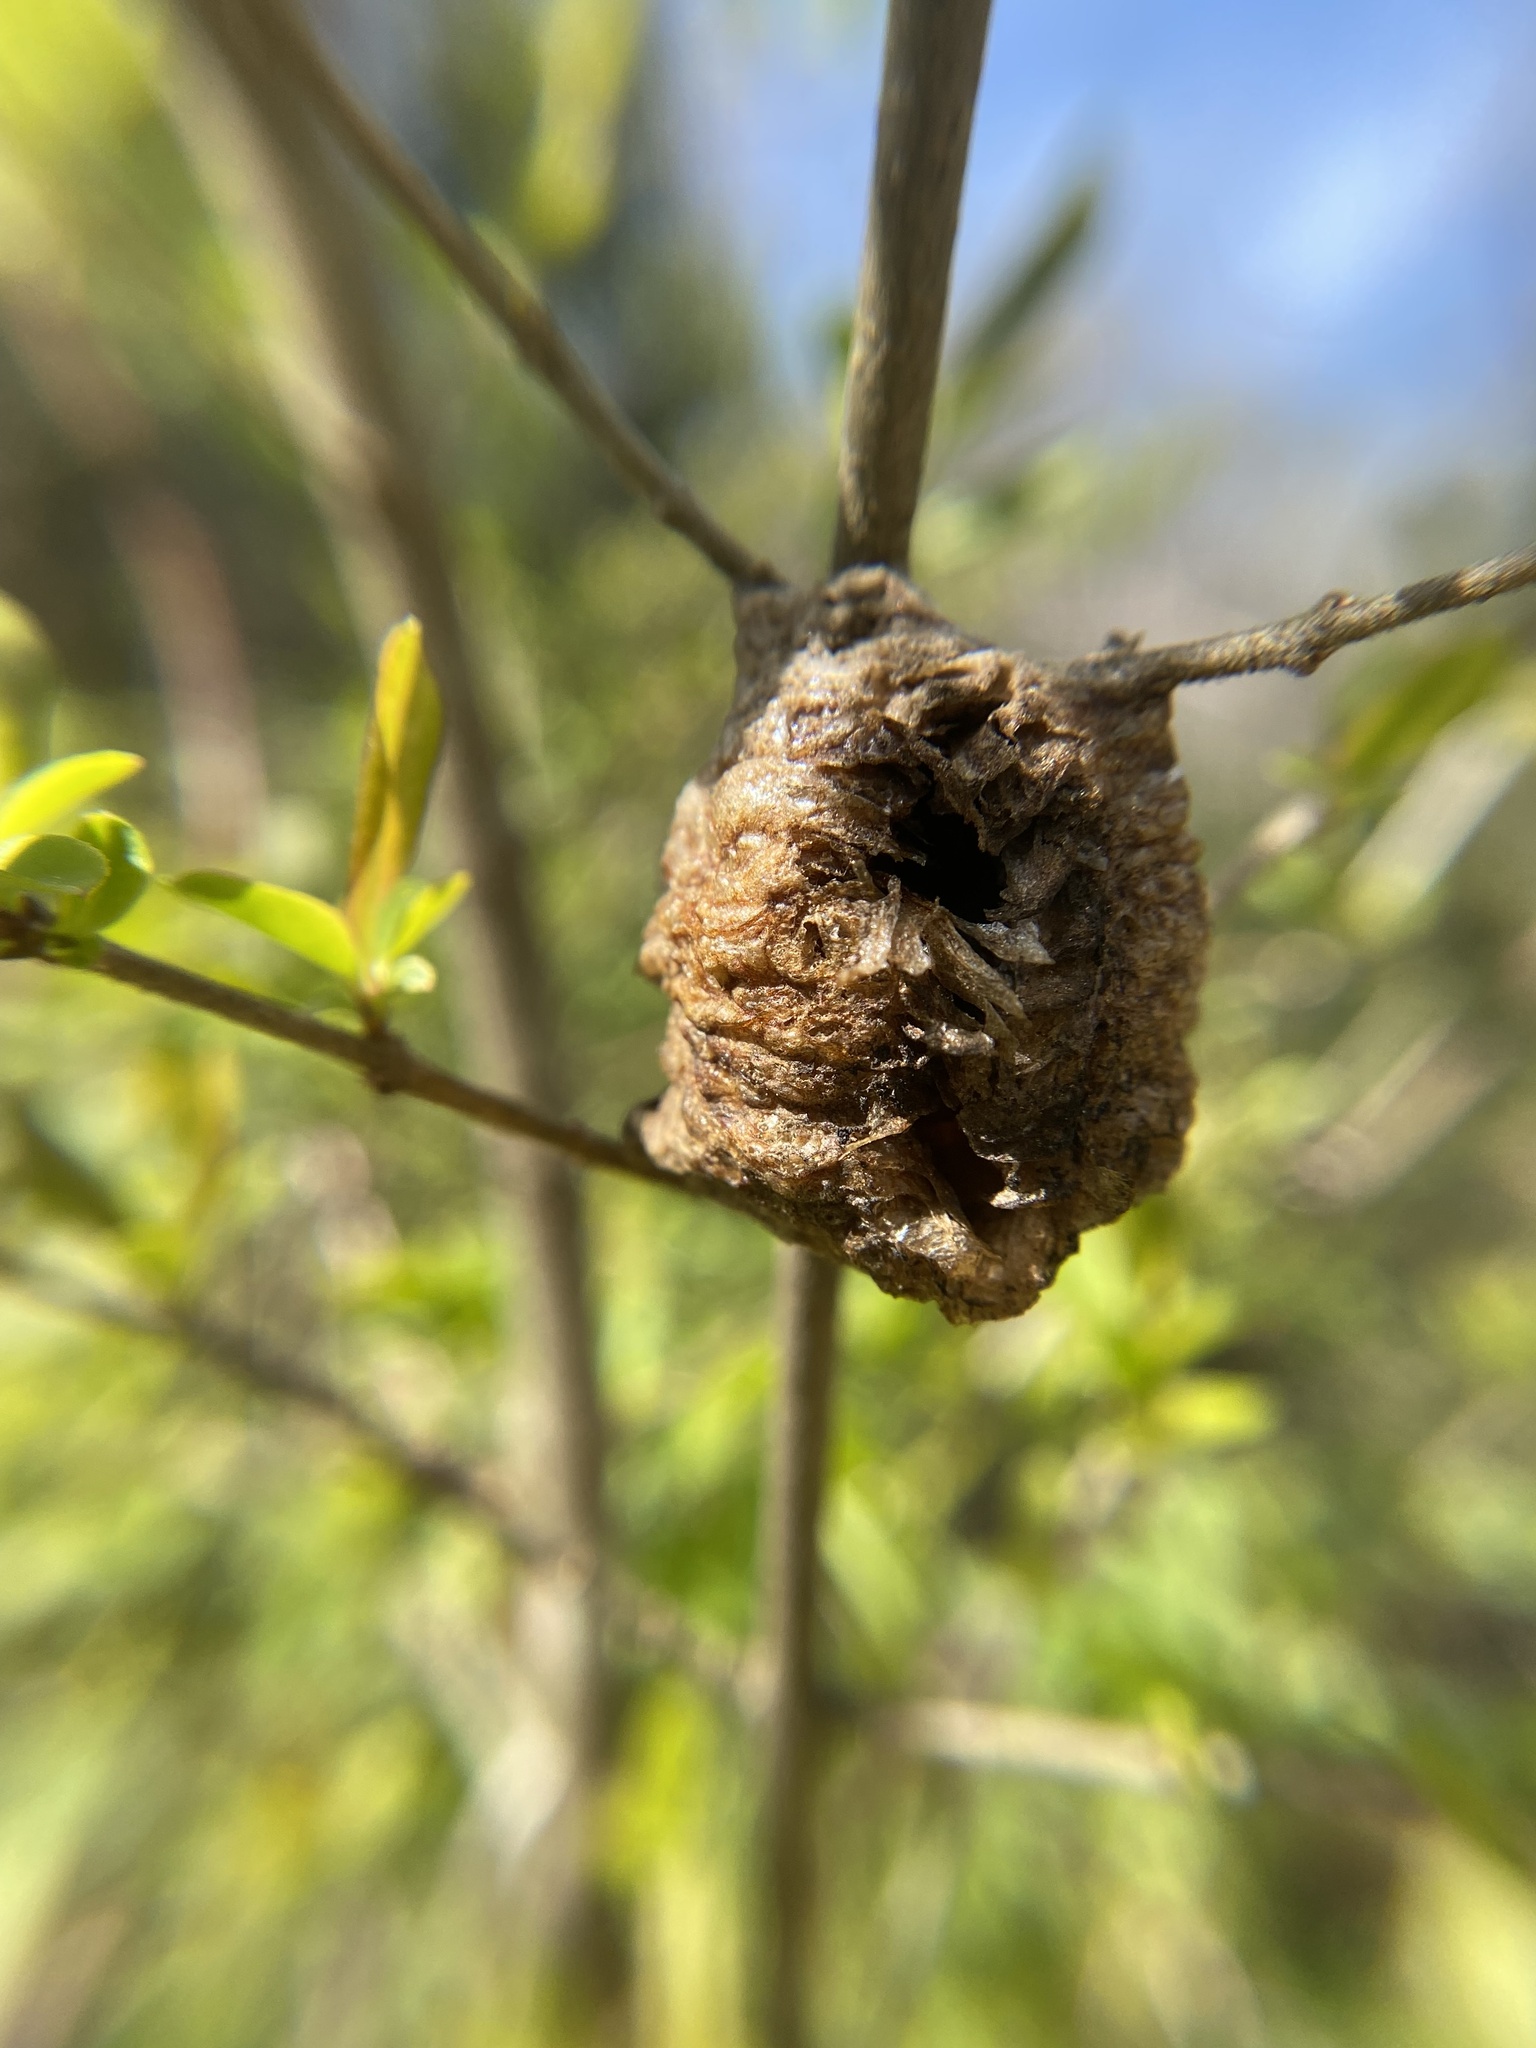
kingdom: Animalia
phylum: Arthropoda
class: Insecta
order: Mantodea
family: Mantidae
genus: Tenodera
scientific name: Tenodera sinensis
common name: Chinese mantis
